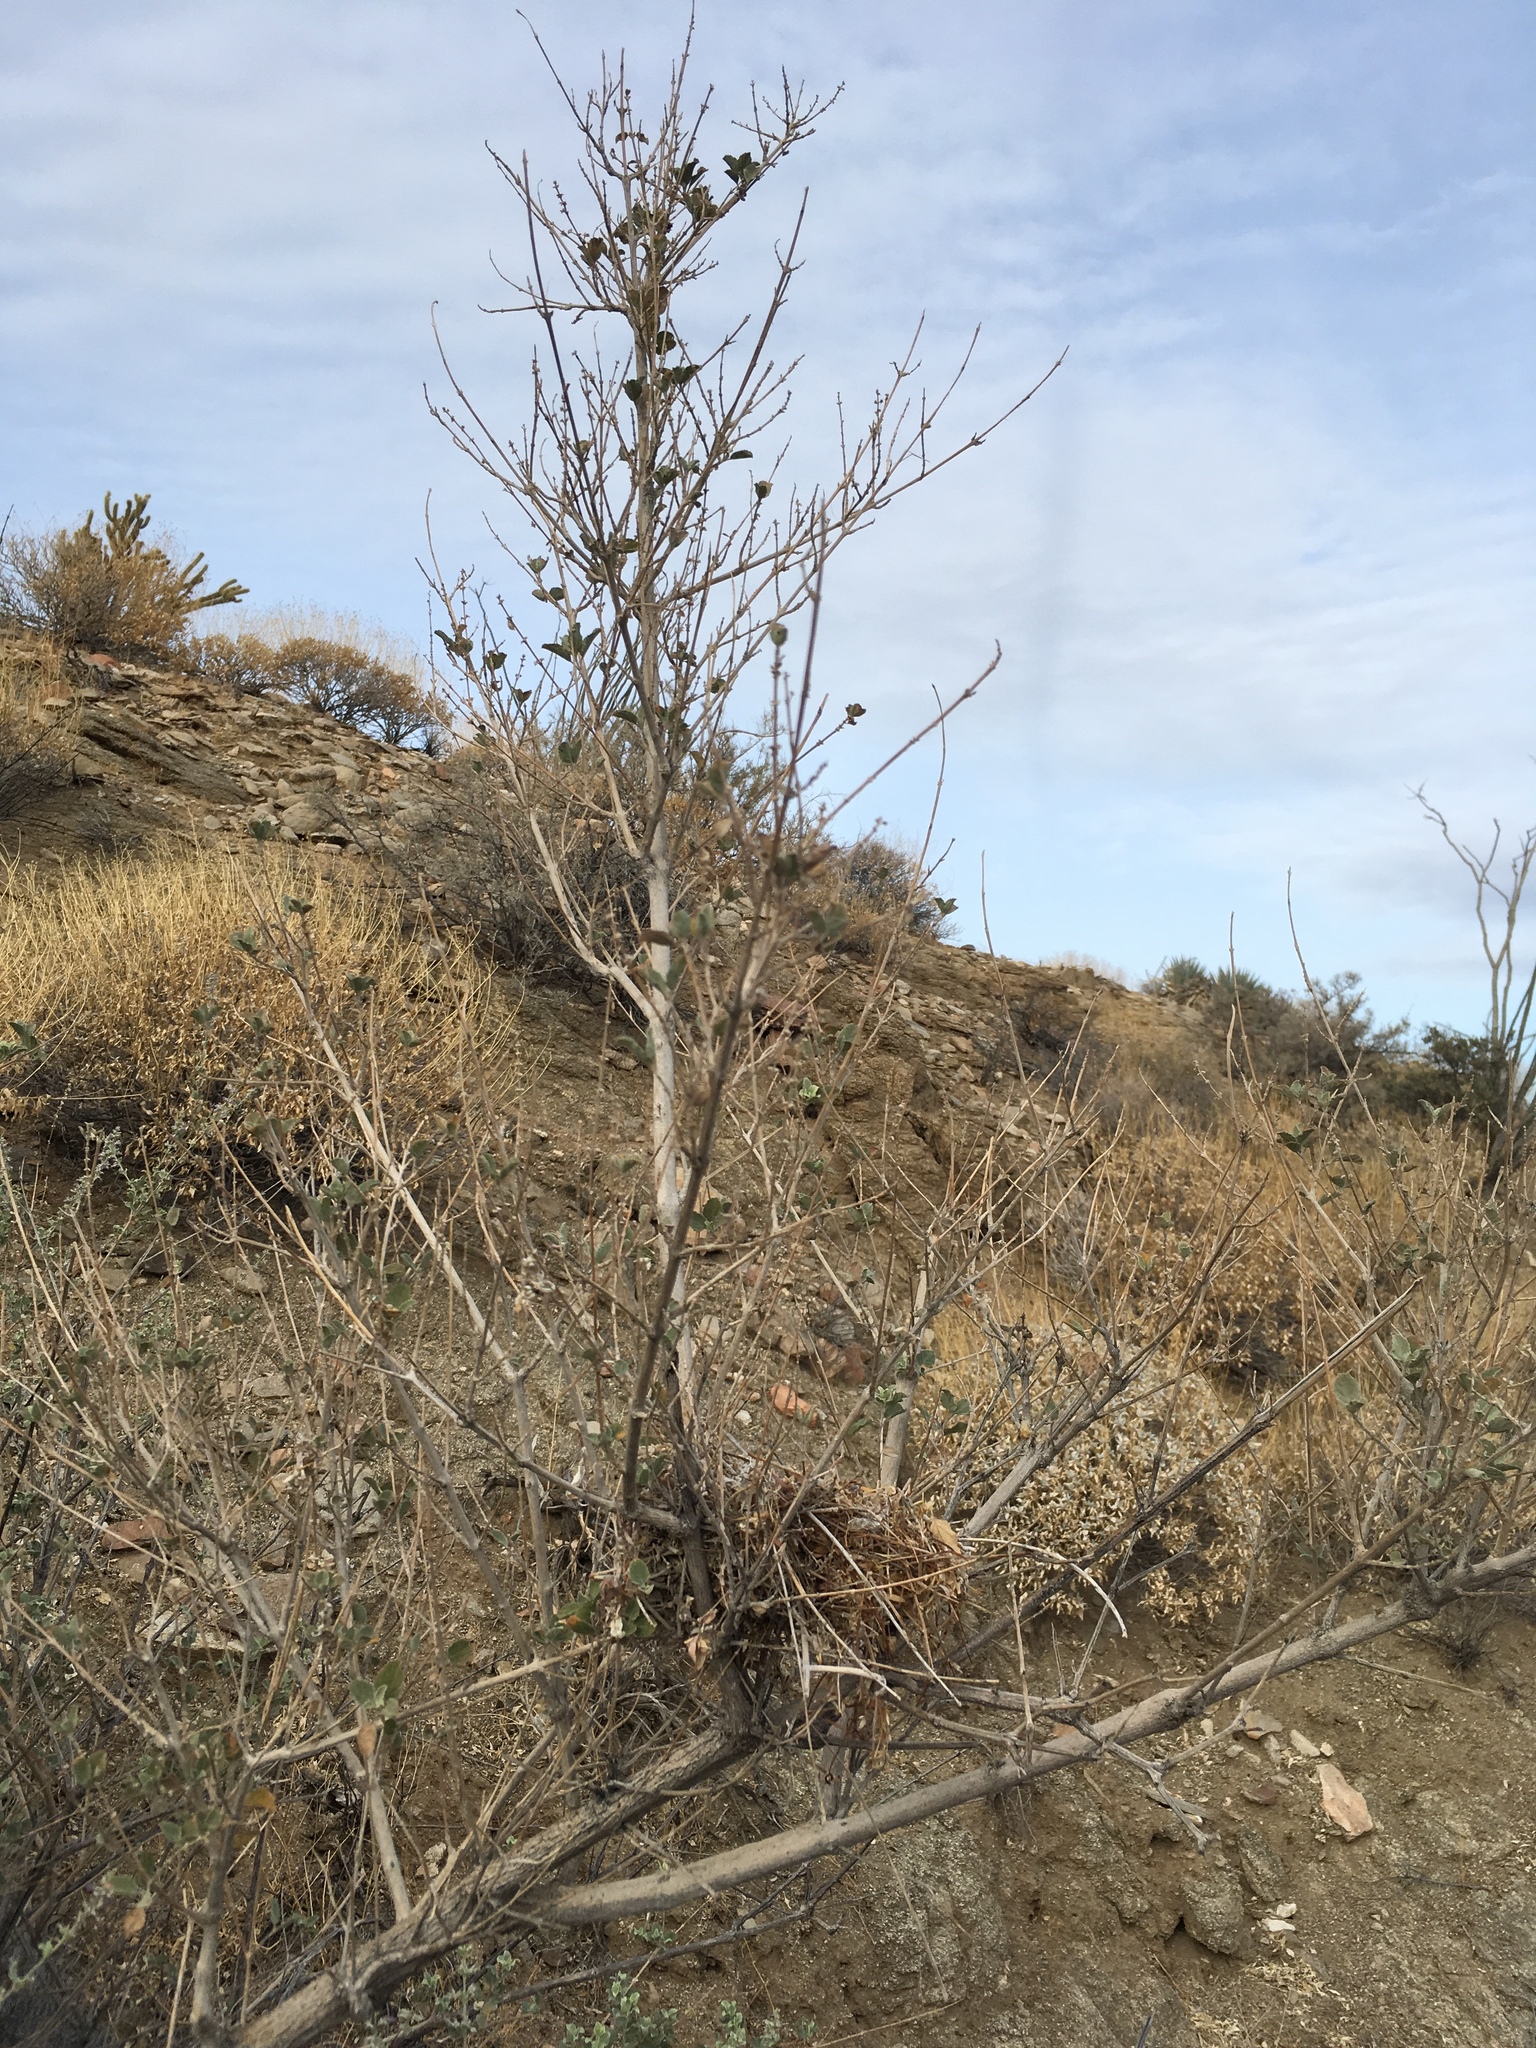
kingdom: Plantae
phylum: Tracheophyta
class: Magnoliopsida
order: Lamiales
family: Lamiaceae
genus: Condea
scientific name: Condea emoryi
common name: Chia
